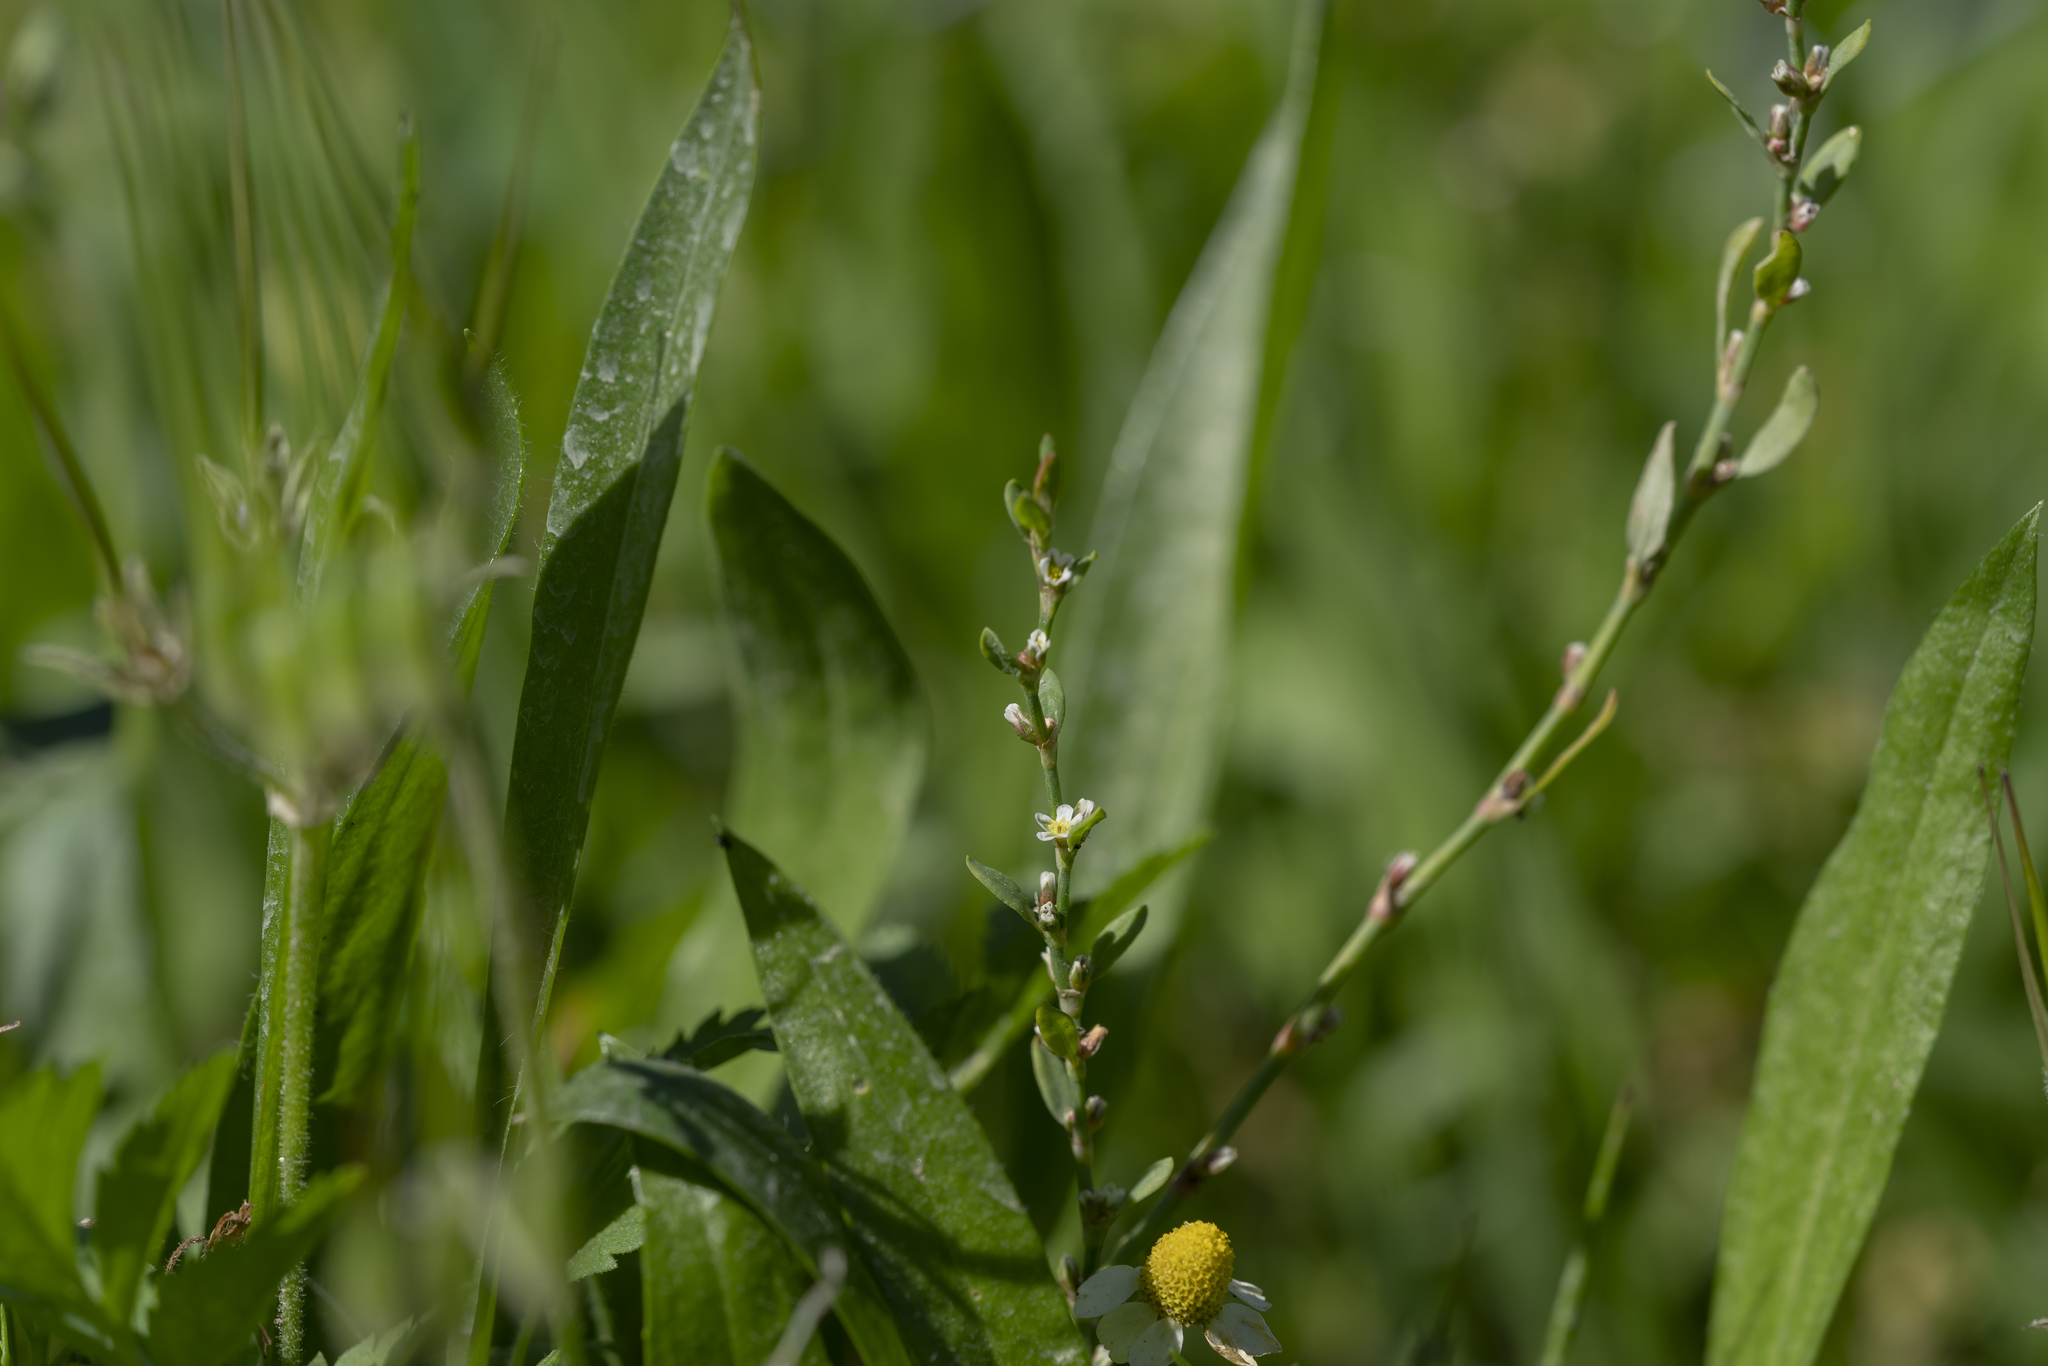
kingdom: Plantae
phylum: Tracheophyta
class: Magnoliopsida
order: Caryophyllales
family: Polygonaceae
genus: Polygonum
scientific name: Polygonum aviculare
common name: Prostrate knotweed
